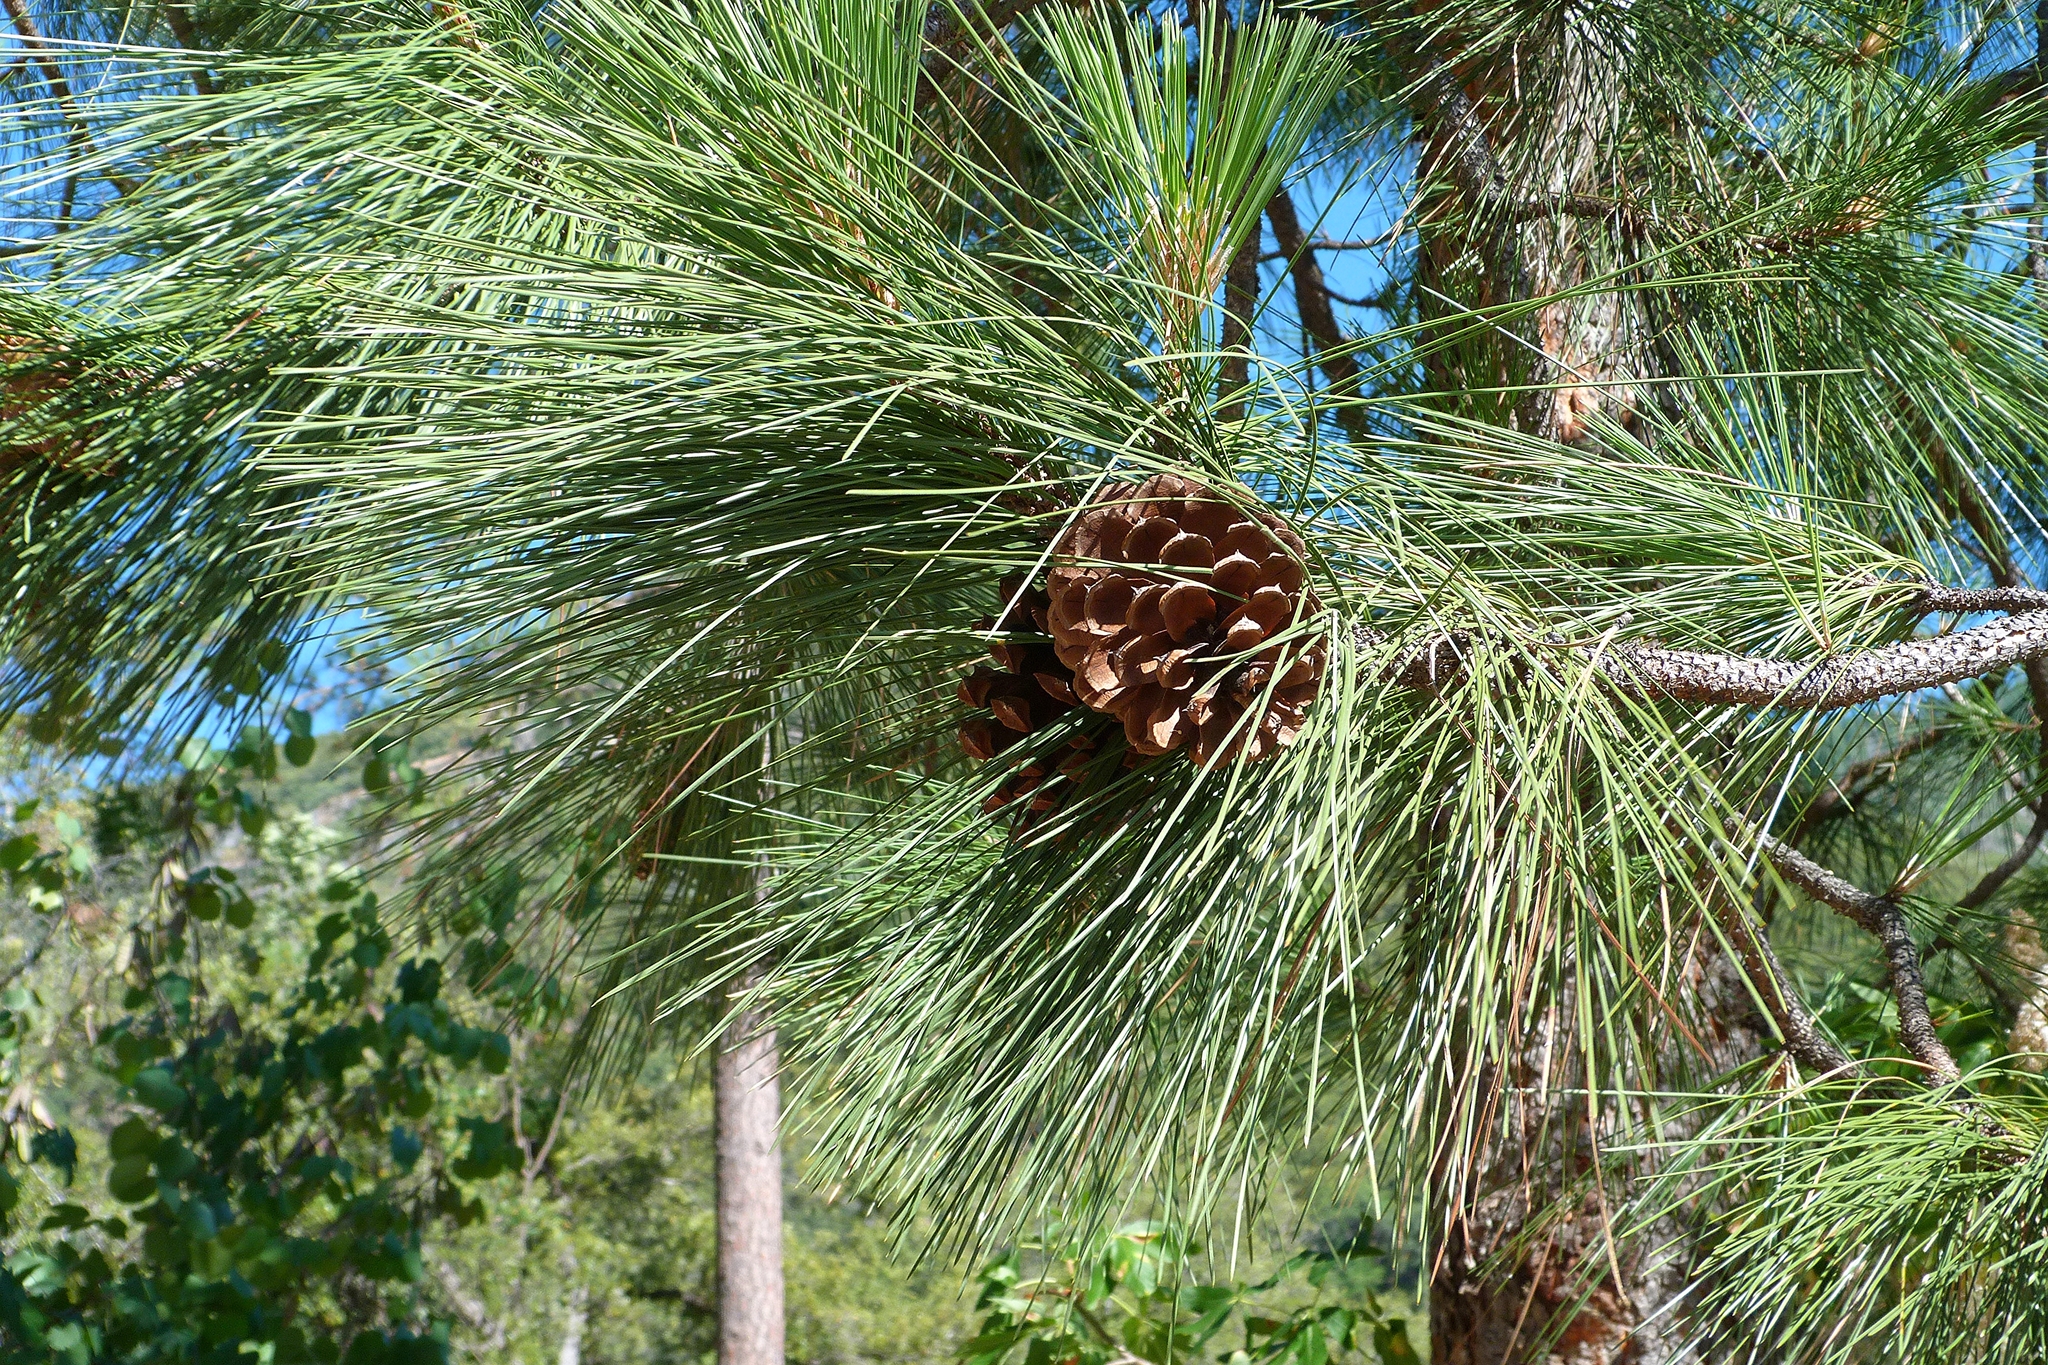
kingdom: Plantae
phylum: Tracheophyta
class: Pinopsida
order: Pinales
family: Pinaceae
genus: Pinus
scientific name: Pinus ponderosa
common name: Western yellow-pine
